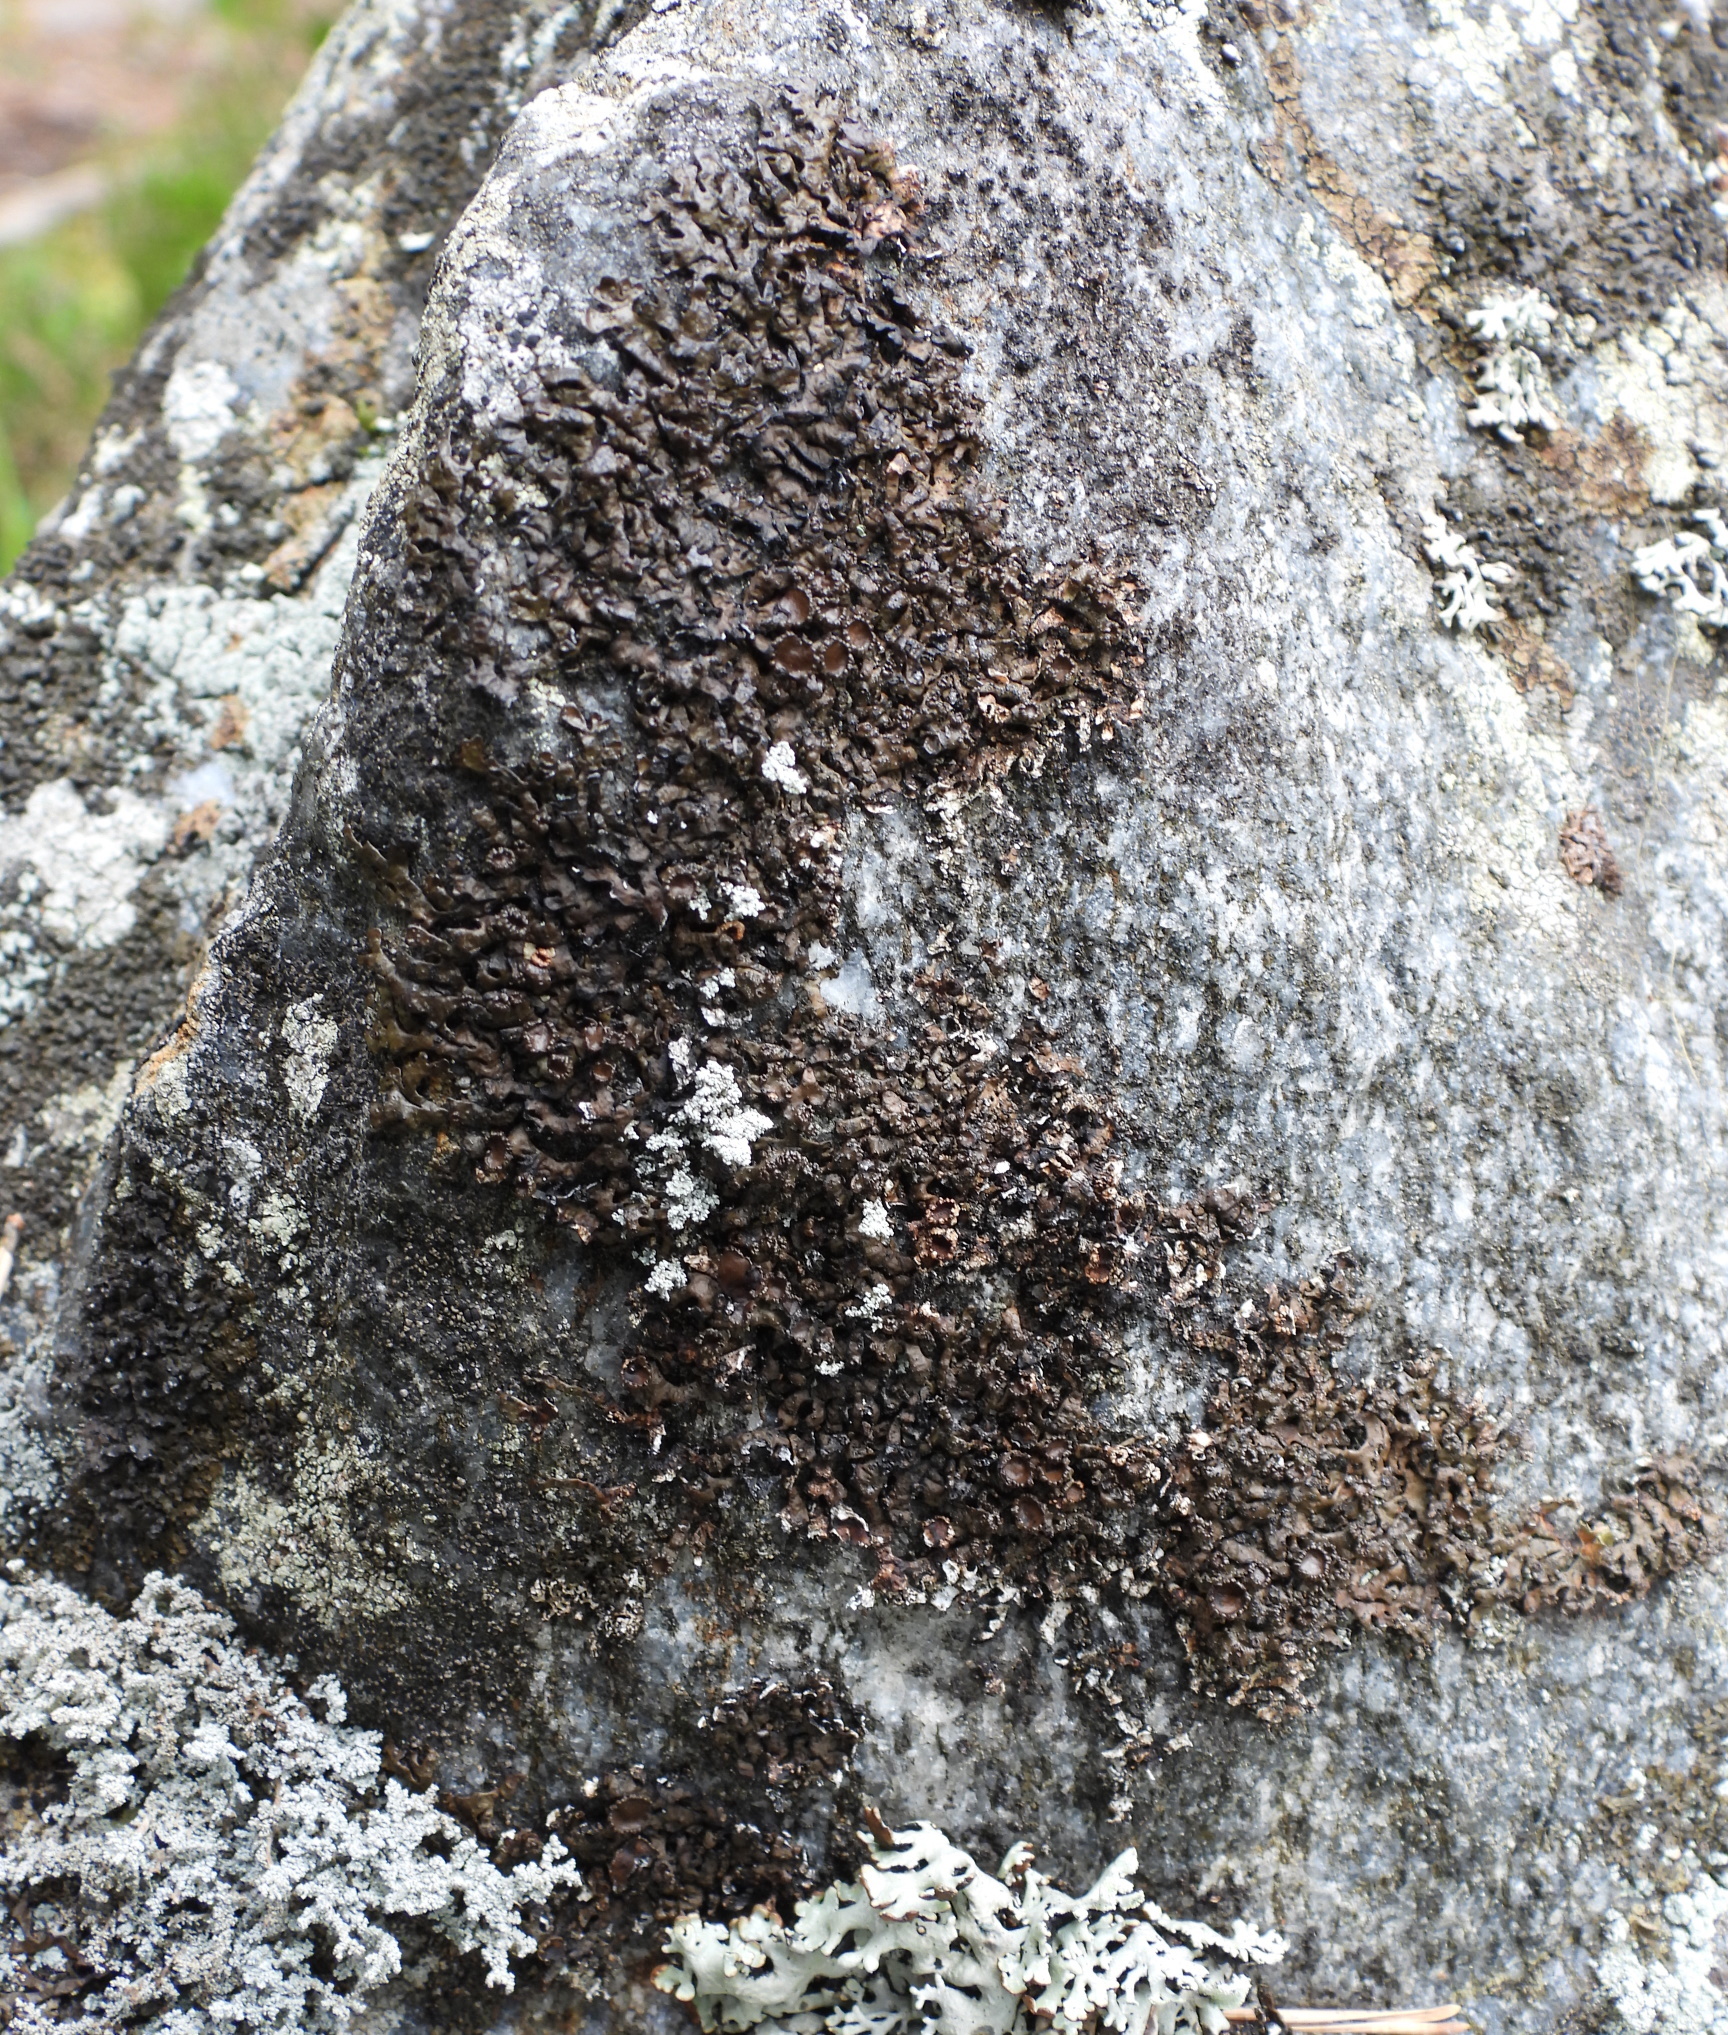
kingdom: Fungi
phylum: Ascomycota
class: Lecanoromycetes
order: Lecanorales
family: Parmeliaceae
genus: Melanelia
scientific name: Melanelia stygia
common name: Alpine camouflage lichen
